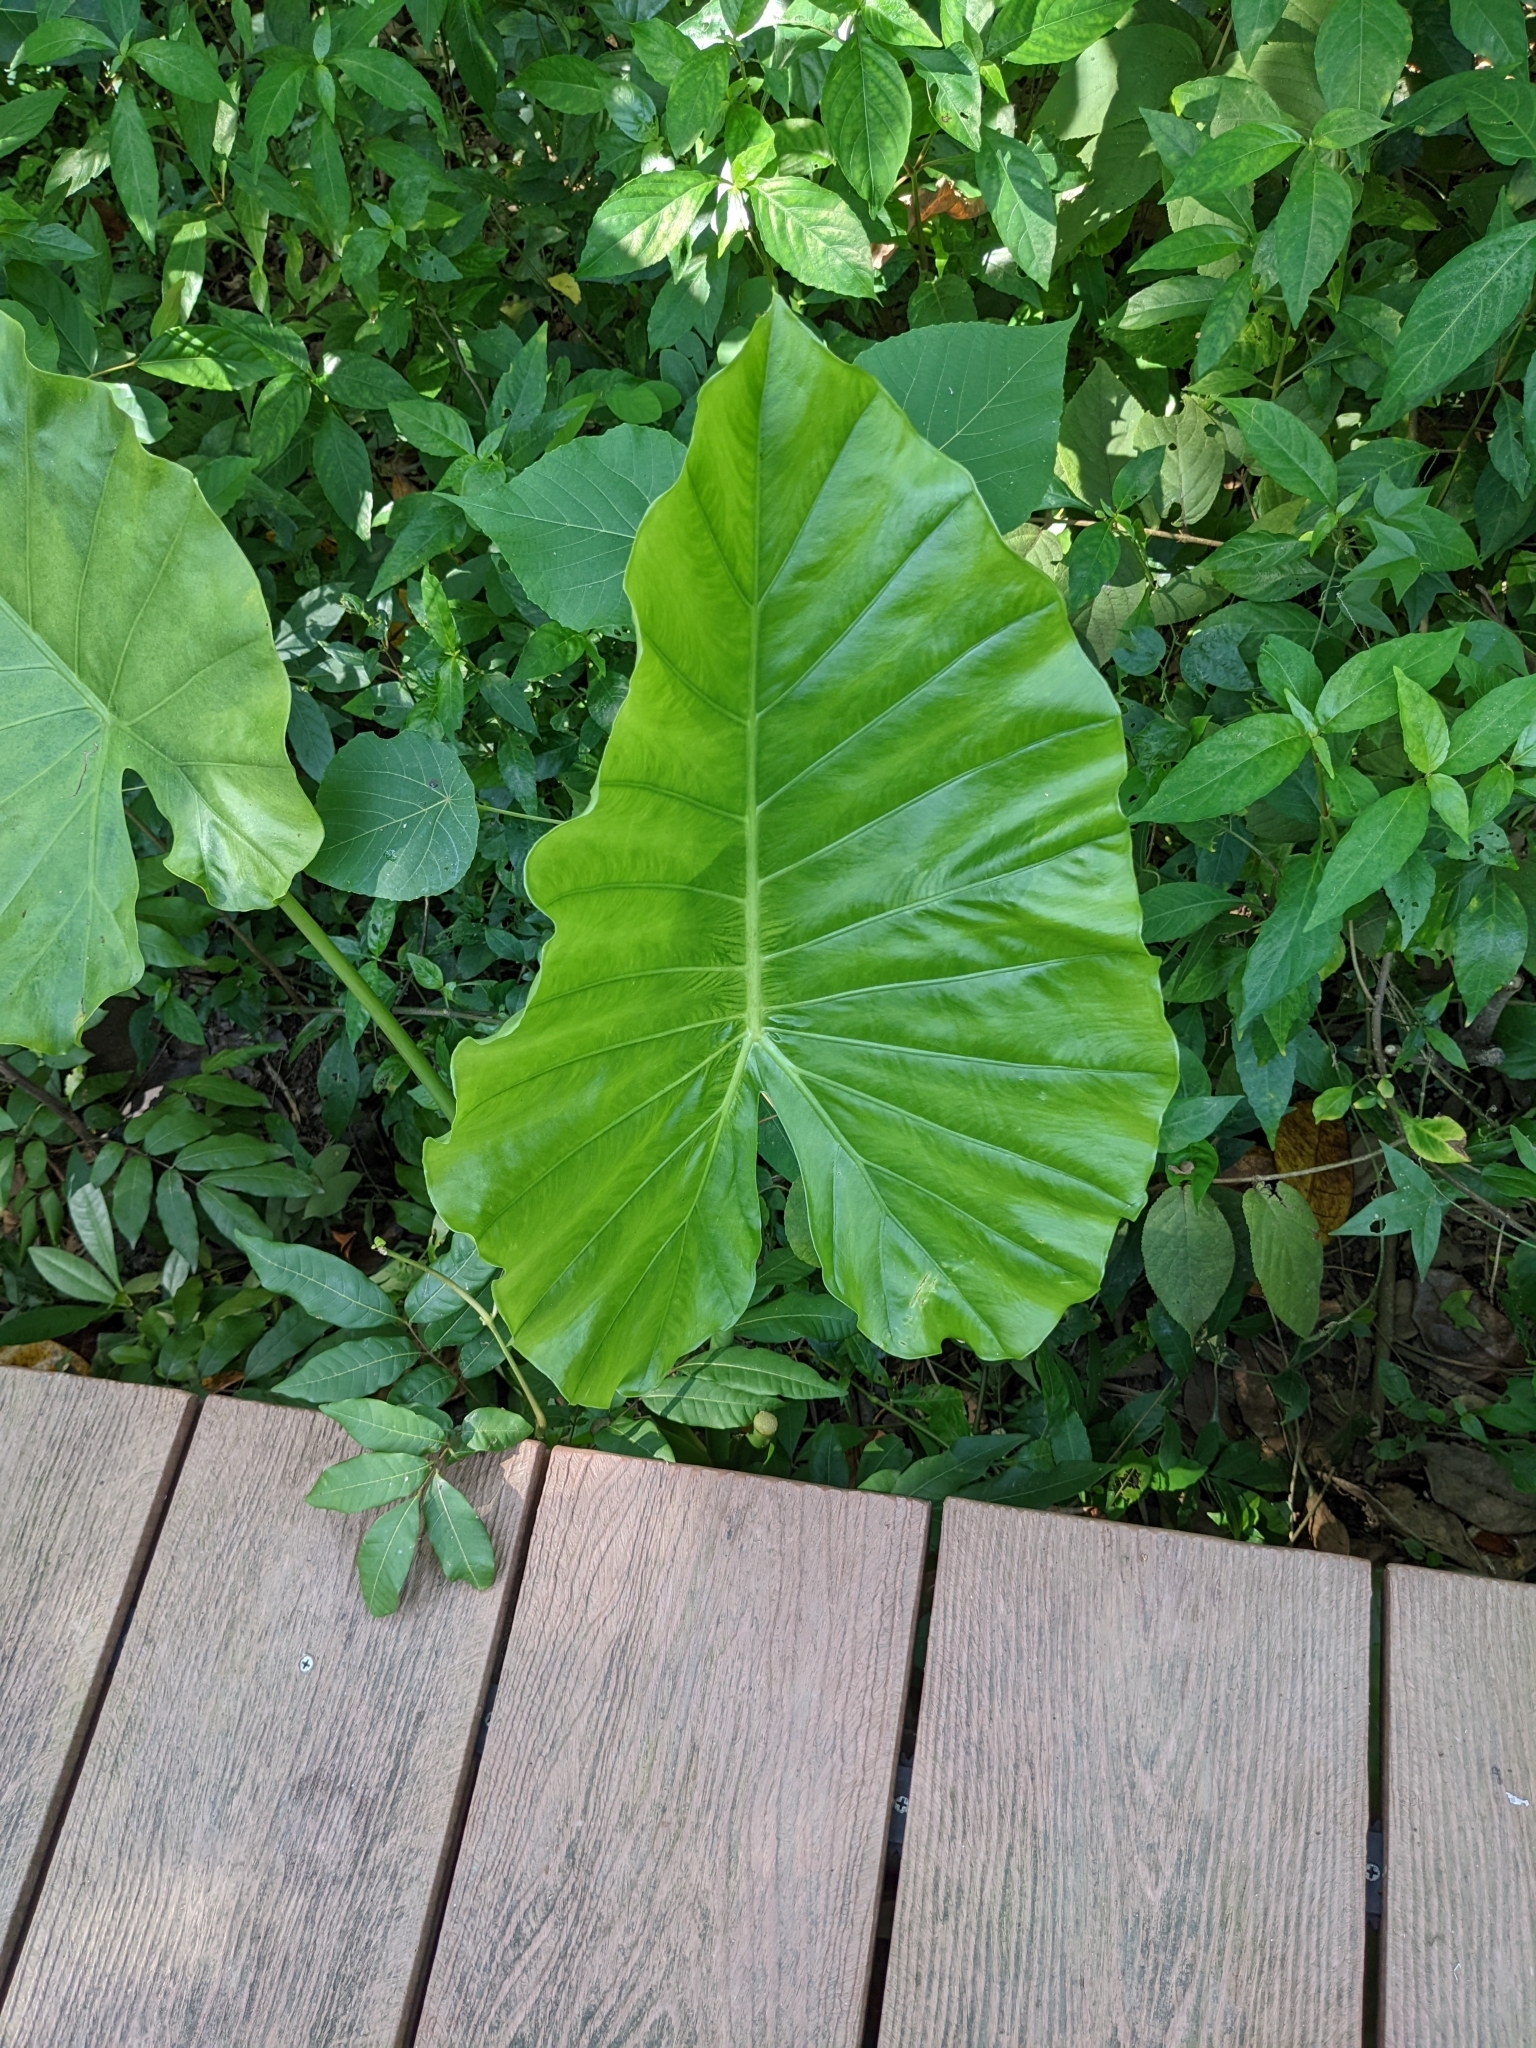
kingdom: Plantae
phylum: Tracheophyta
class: Liliopsida
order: Alismatales
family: Araceae
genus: Alocasia
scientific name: Alocasia odora
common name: Asian taro
